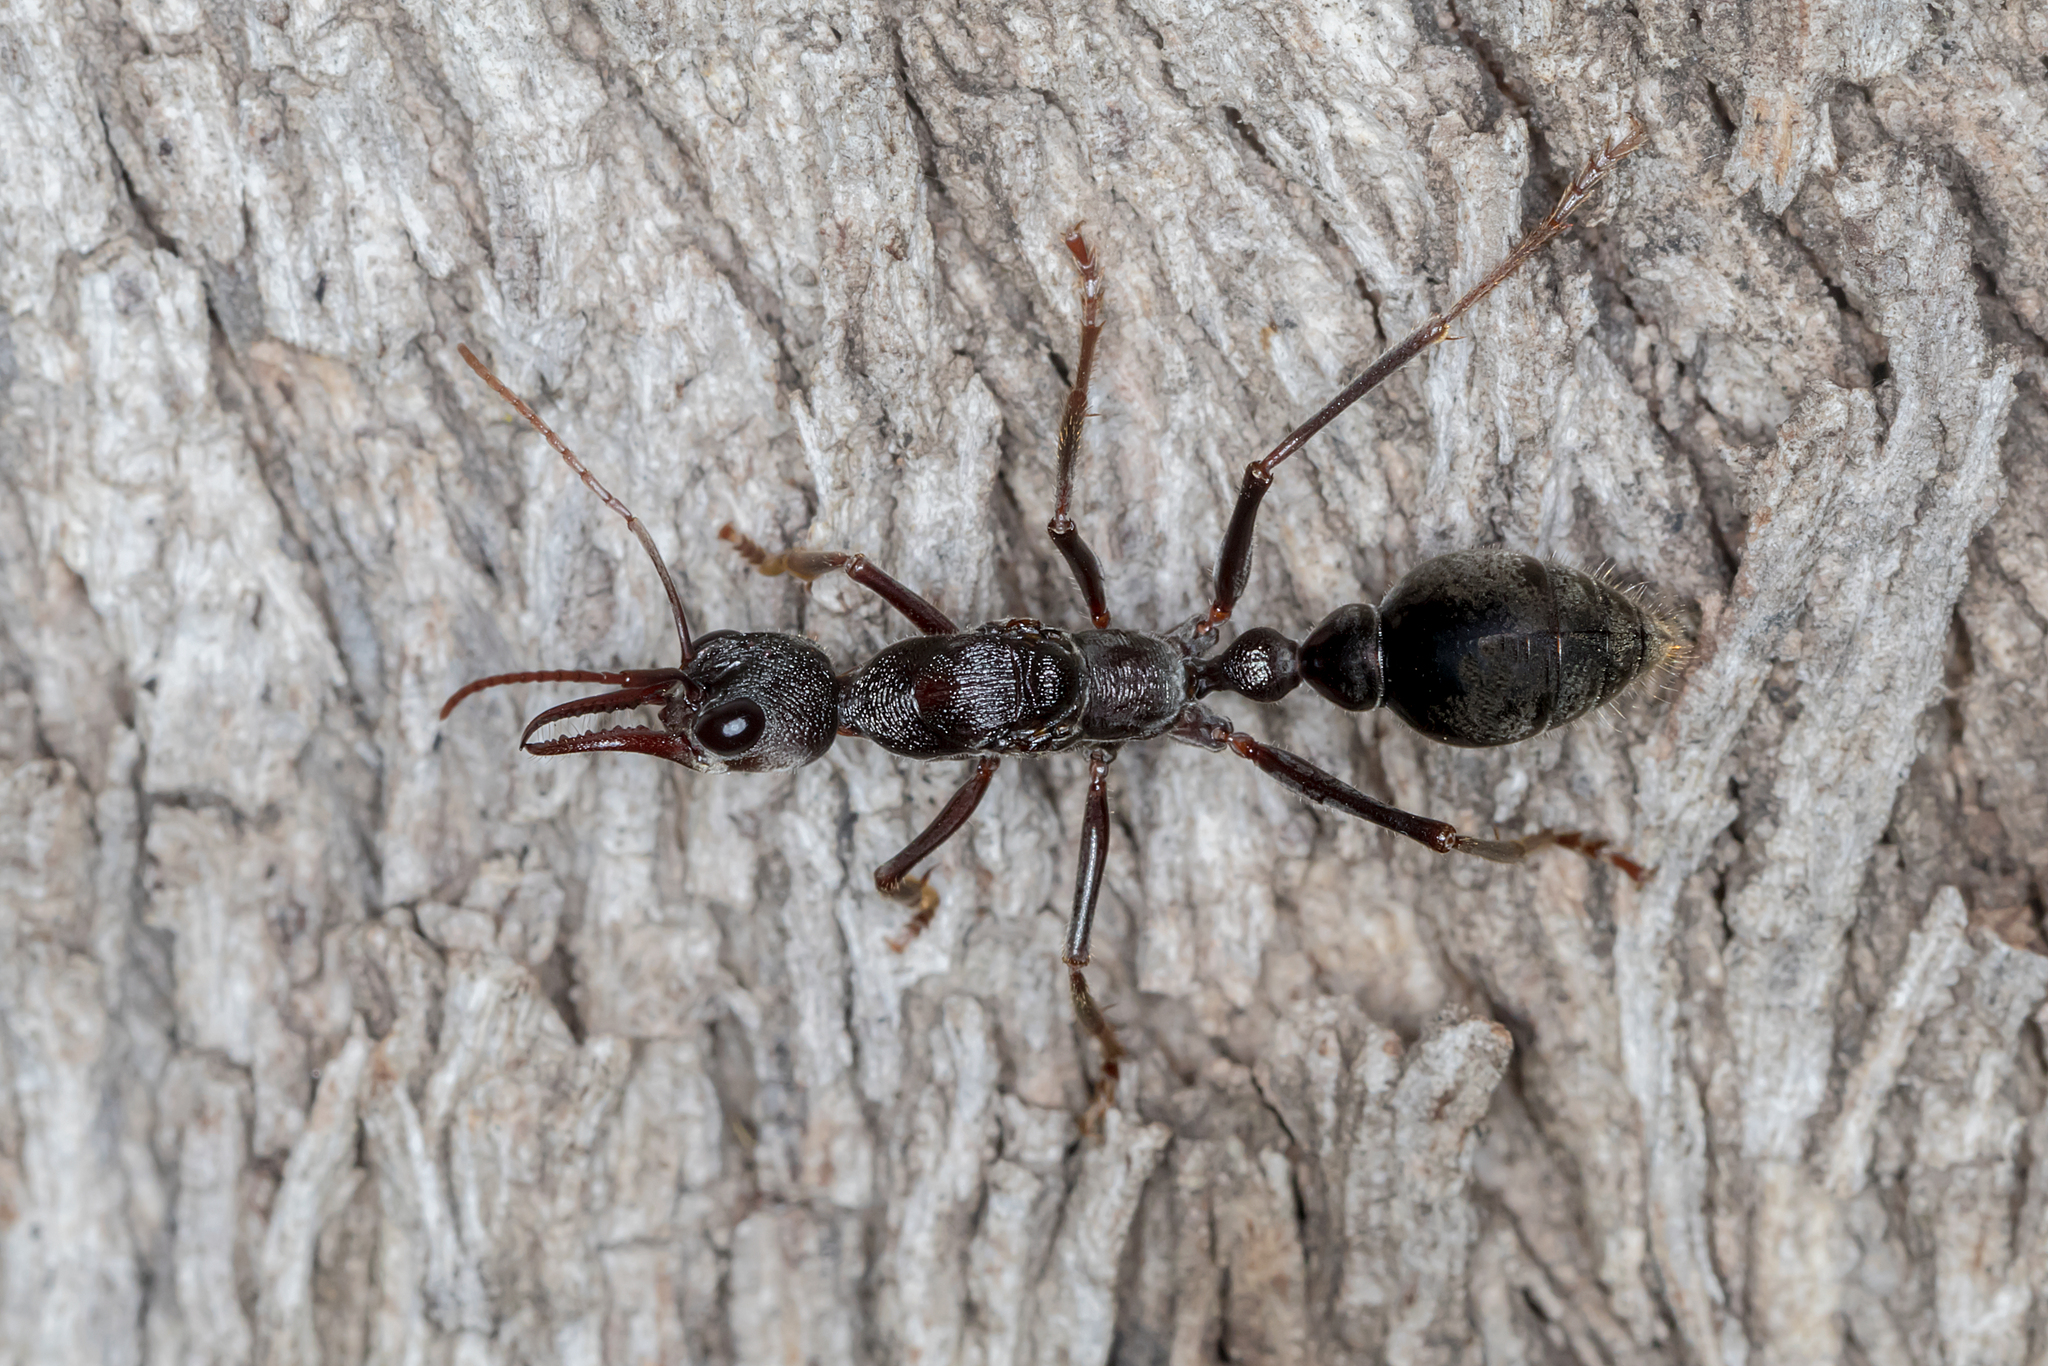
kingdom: Animalia
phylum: Arthropoda
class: Insecta
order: Hymenoptera
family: Formicidae
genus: Myrmecia
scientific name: Myrmecia pyriformis
